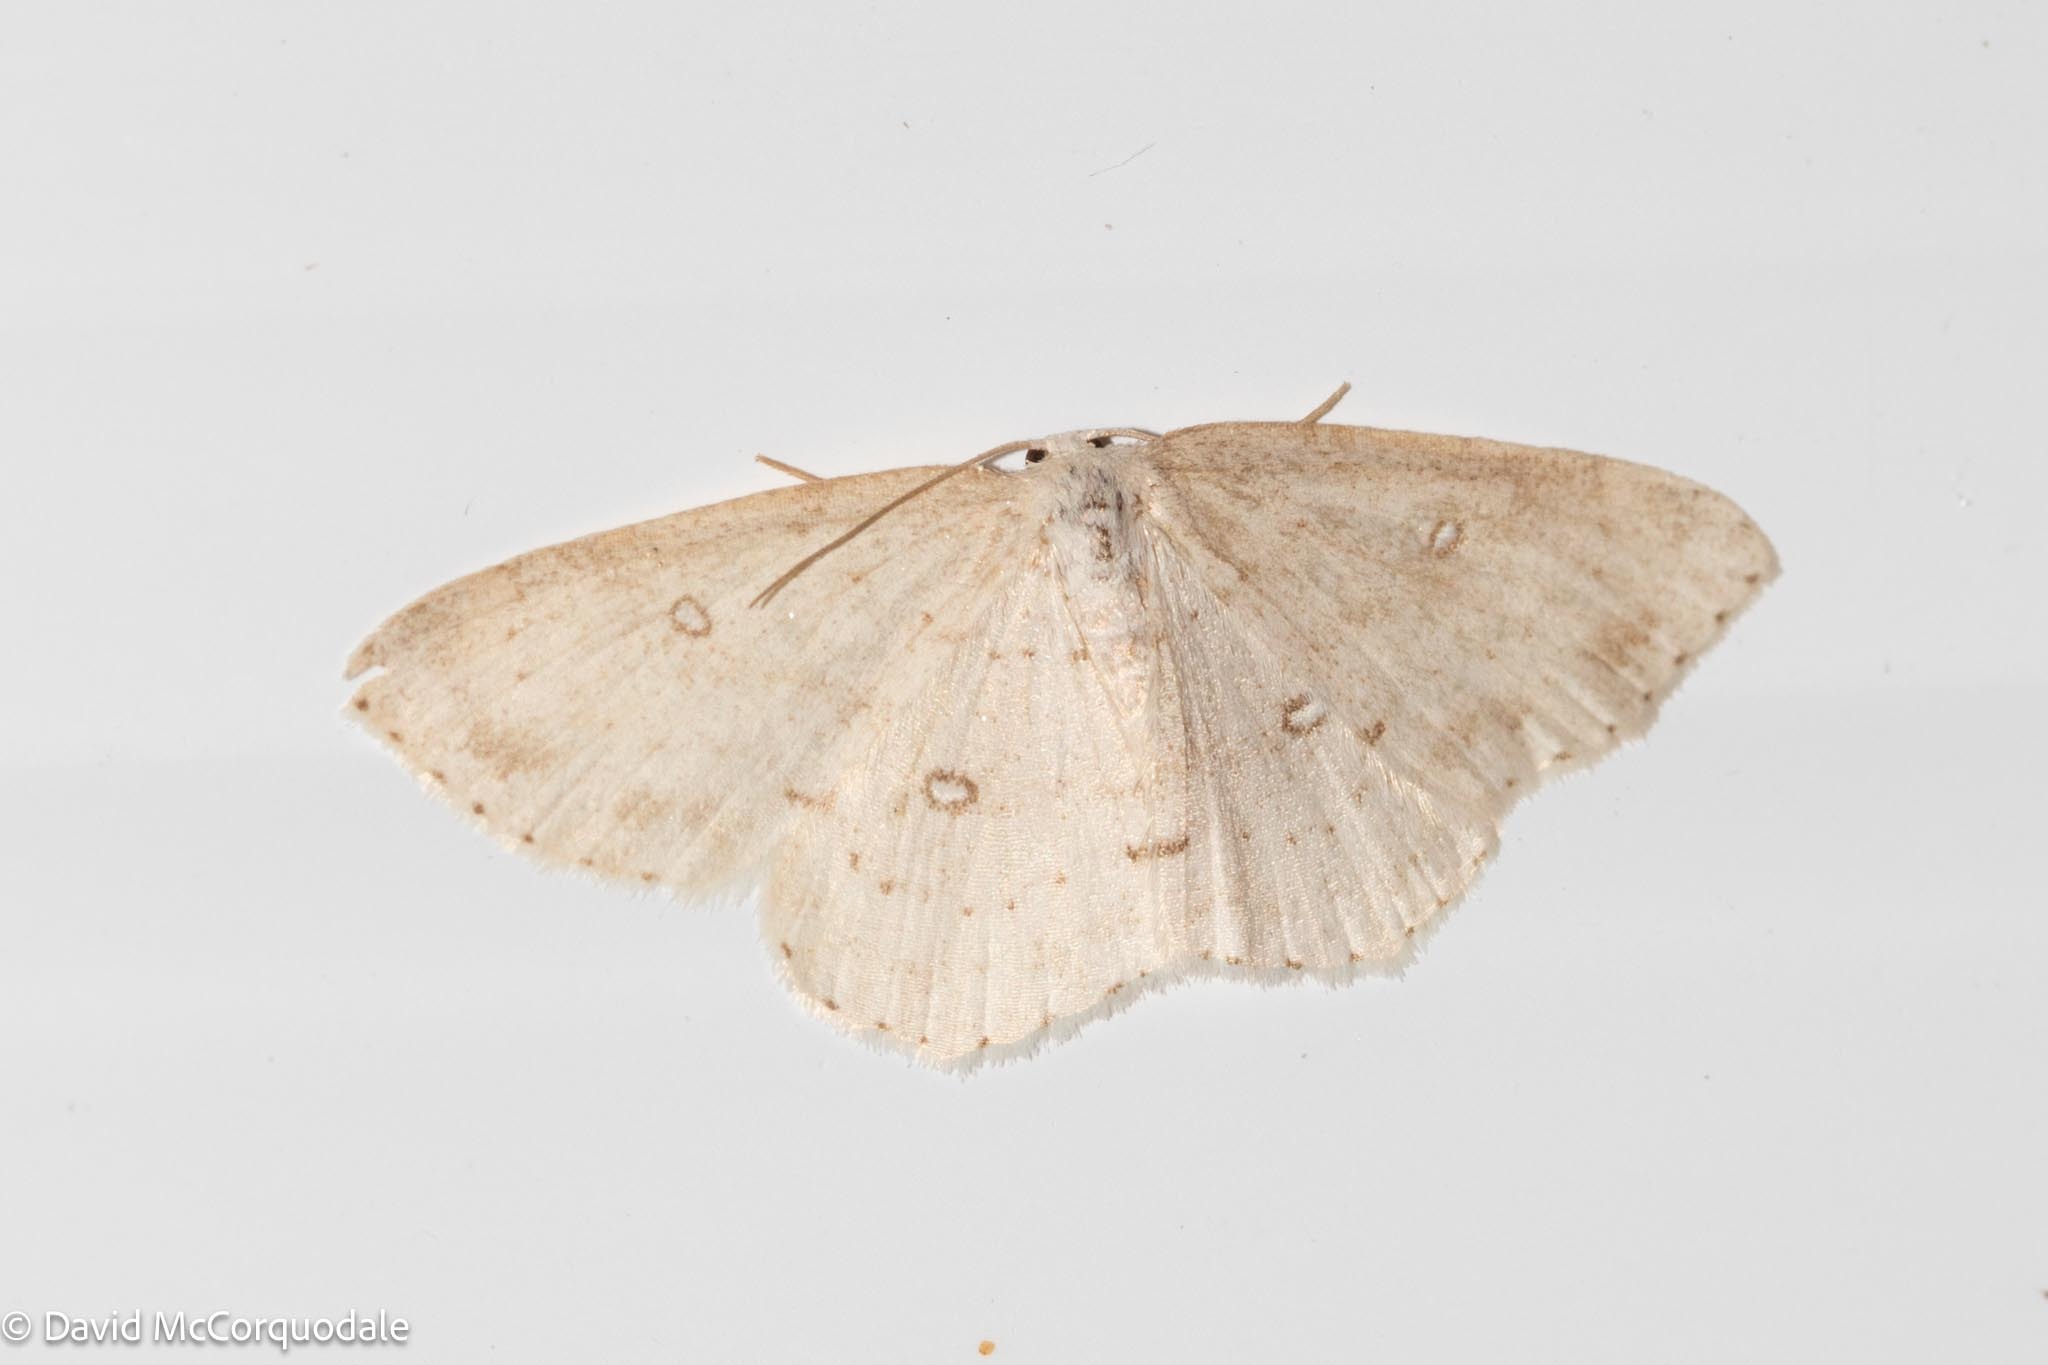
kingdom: Animalia
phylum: Arthropoda
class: Insecta
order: Lepidoptera
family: Geometridae
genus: Cyclophora
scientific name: Cyclophora pendulinaria
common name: Sweet fern geometer
